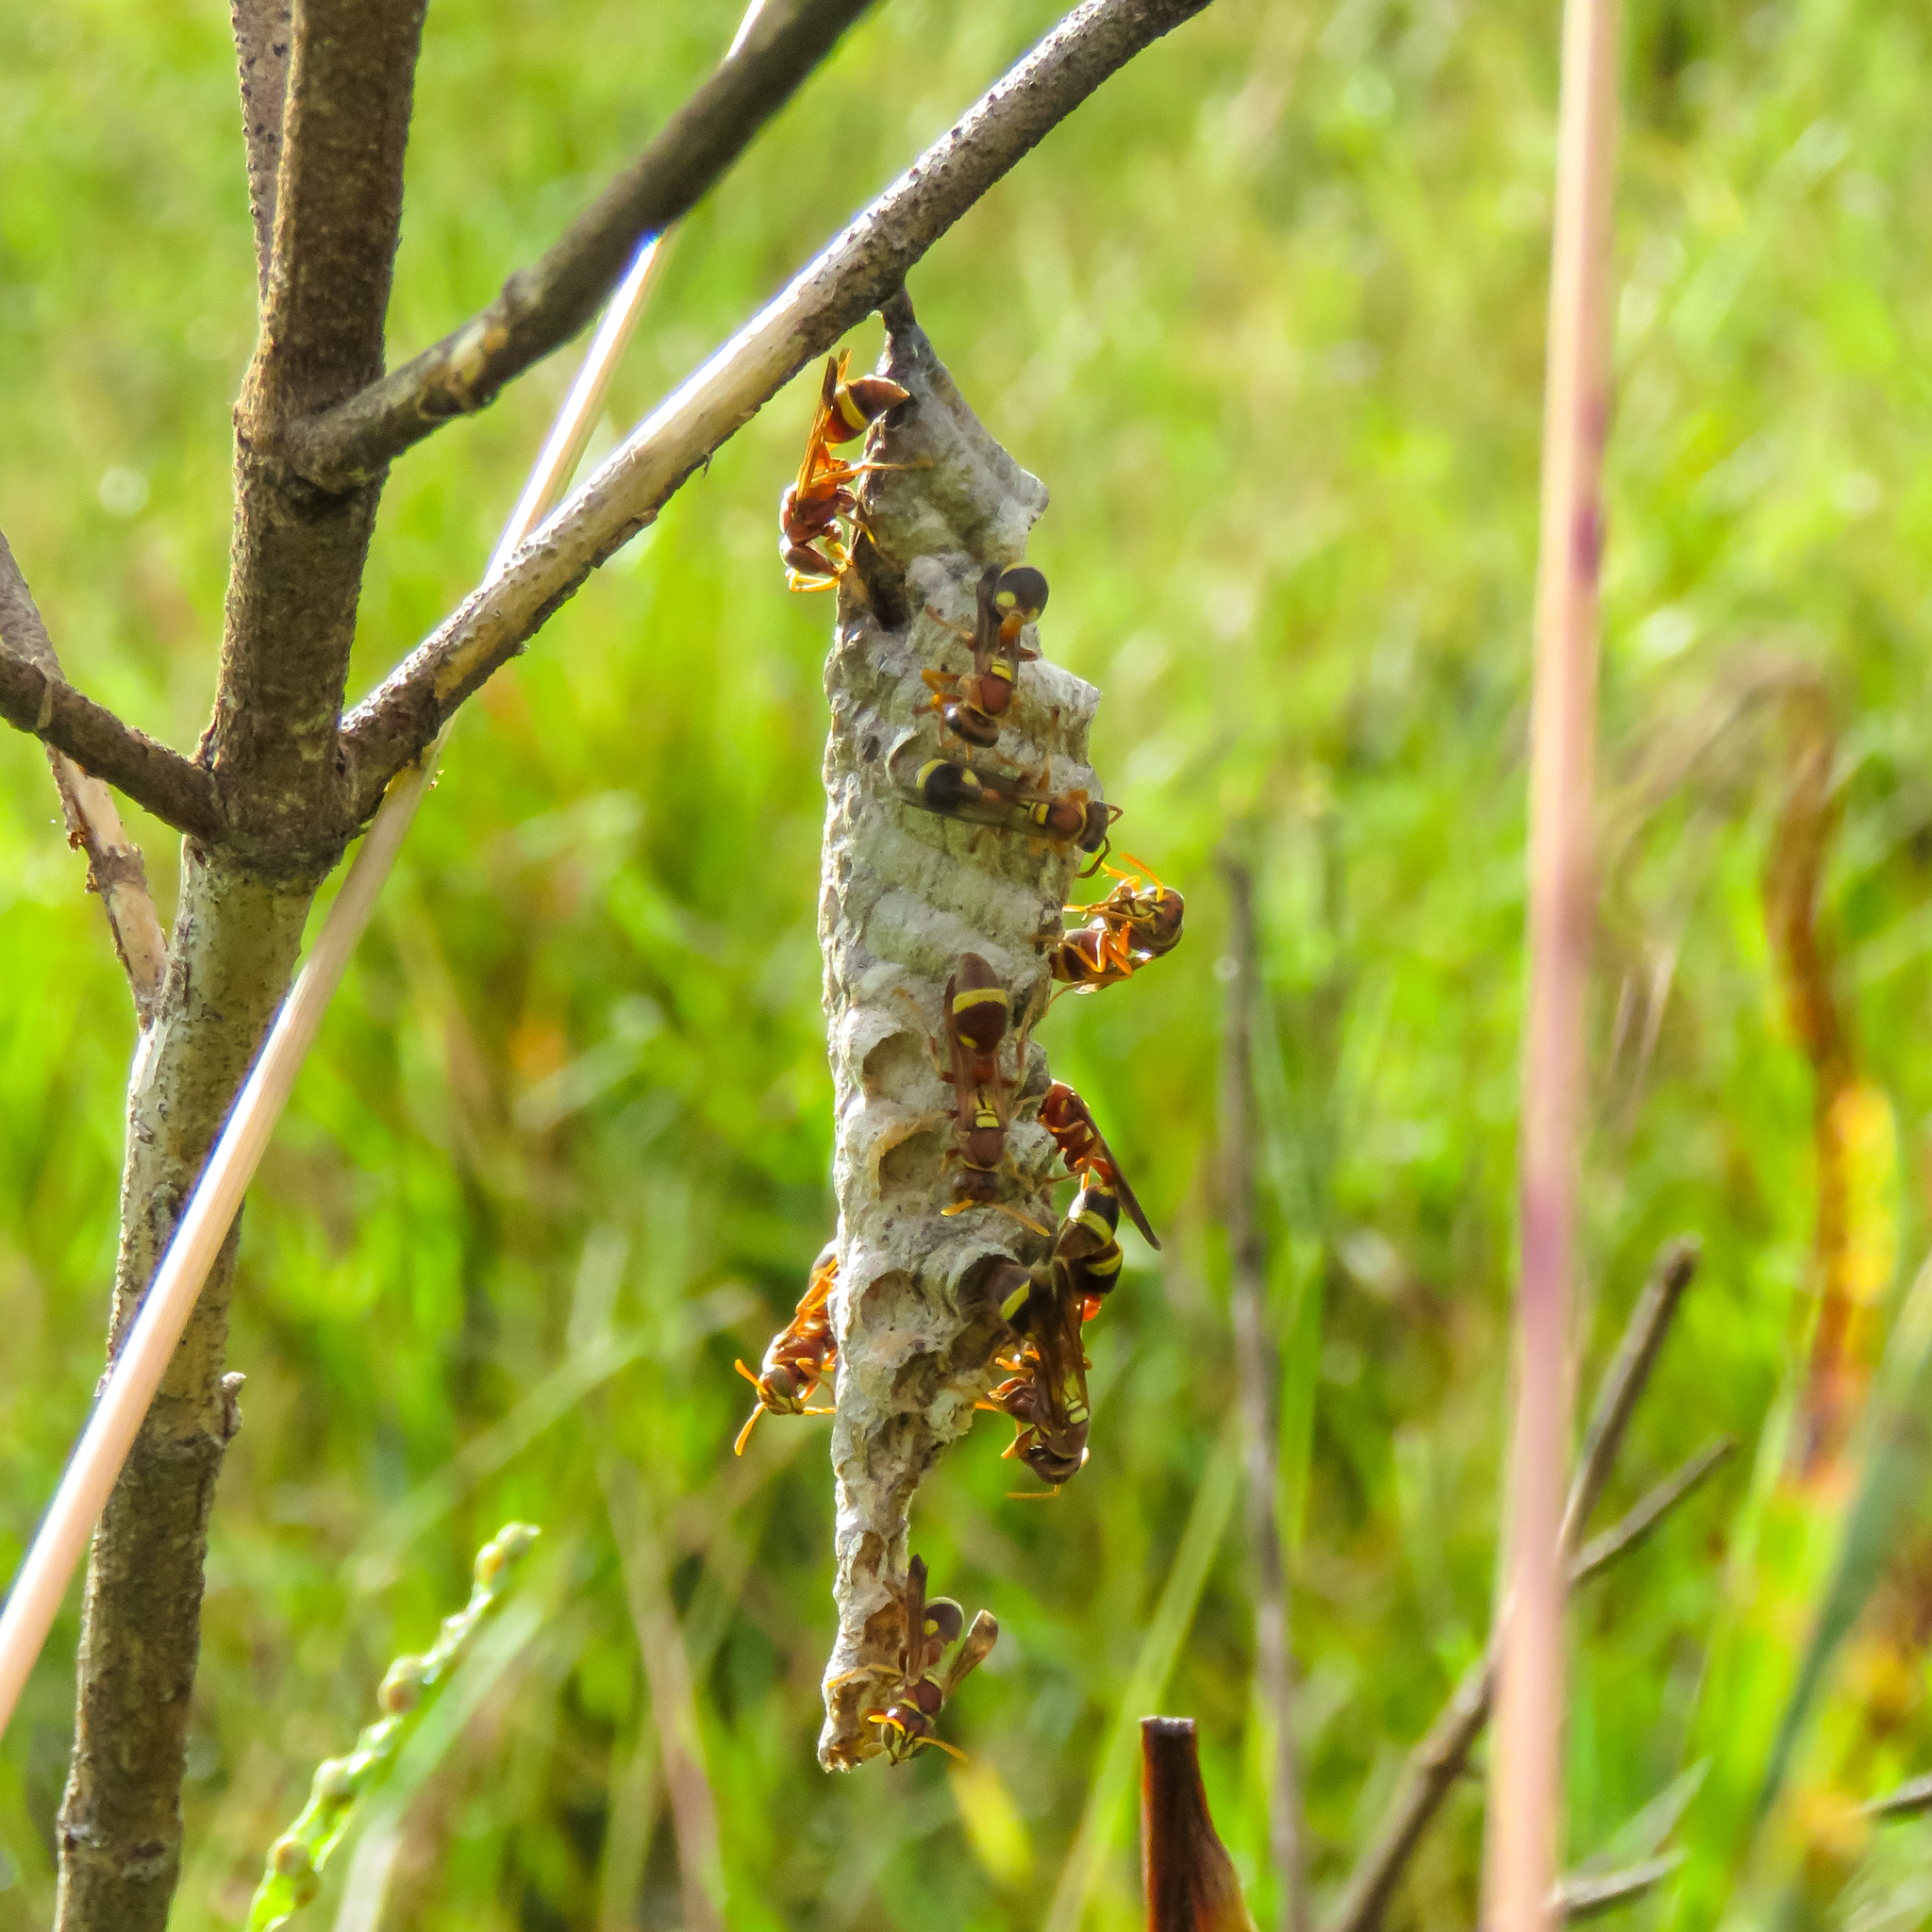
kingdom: Animalia
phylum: Arthropoda
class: Insecta
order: Hymenoptera
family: Vespidae
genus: Ropalidia
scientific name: Ropalidia fasciata
